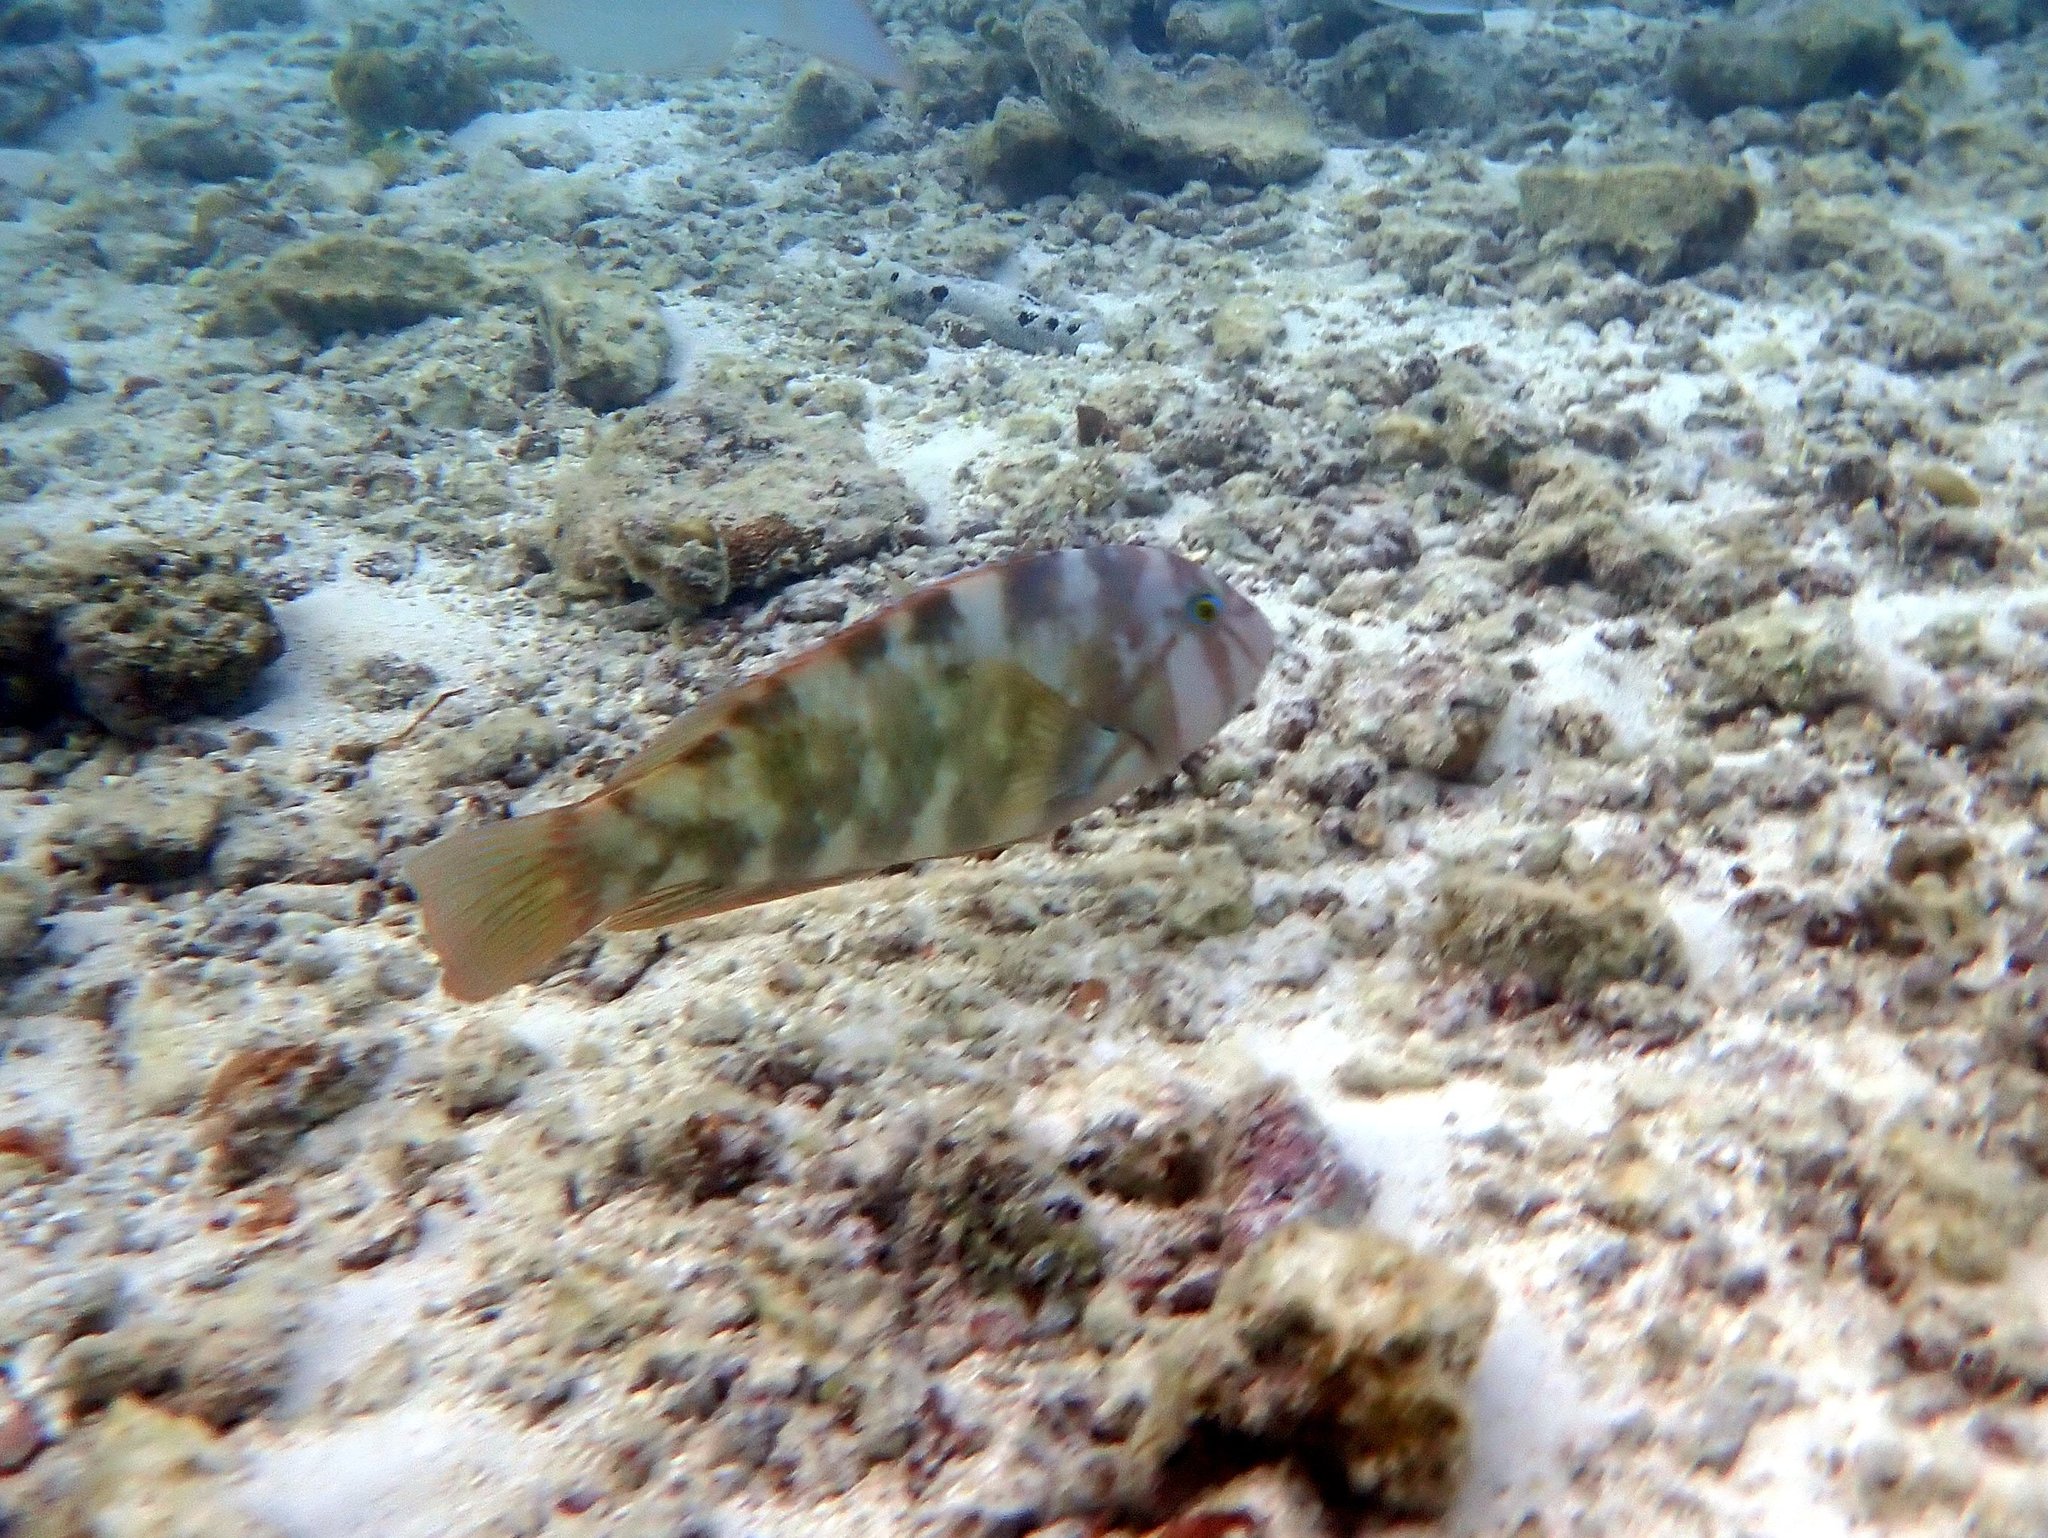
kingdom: Animalia
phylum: Chordata
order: Perciformes
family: Labridae
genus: Choerodon
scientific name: Choerodon graphicus
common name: Graphic tuskfish
